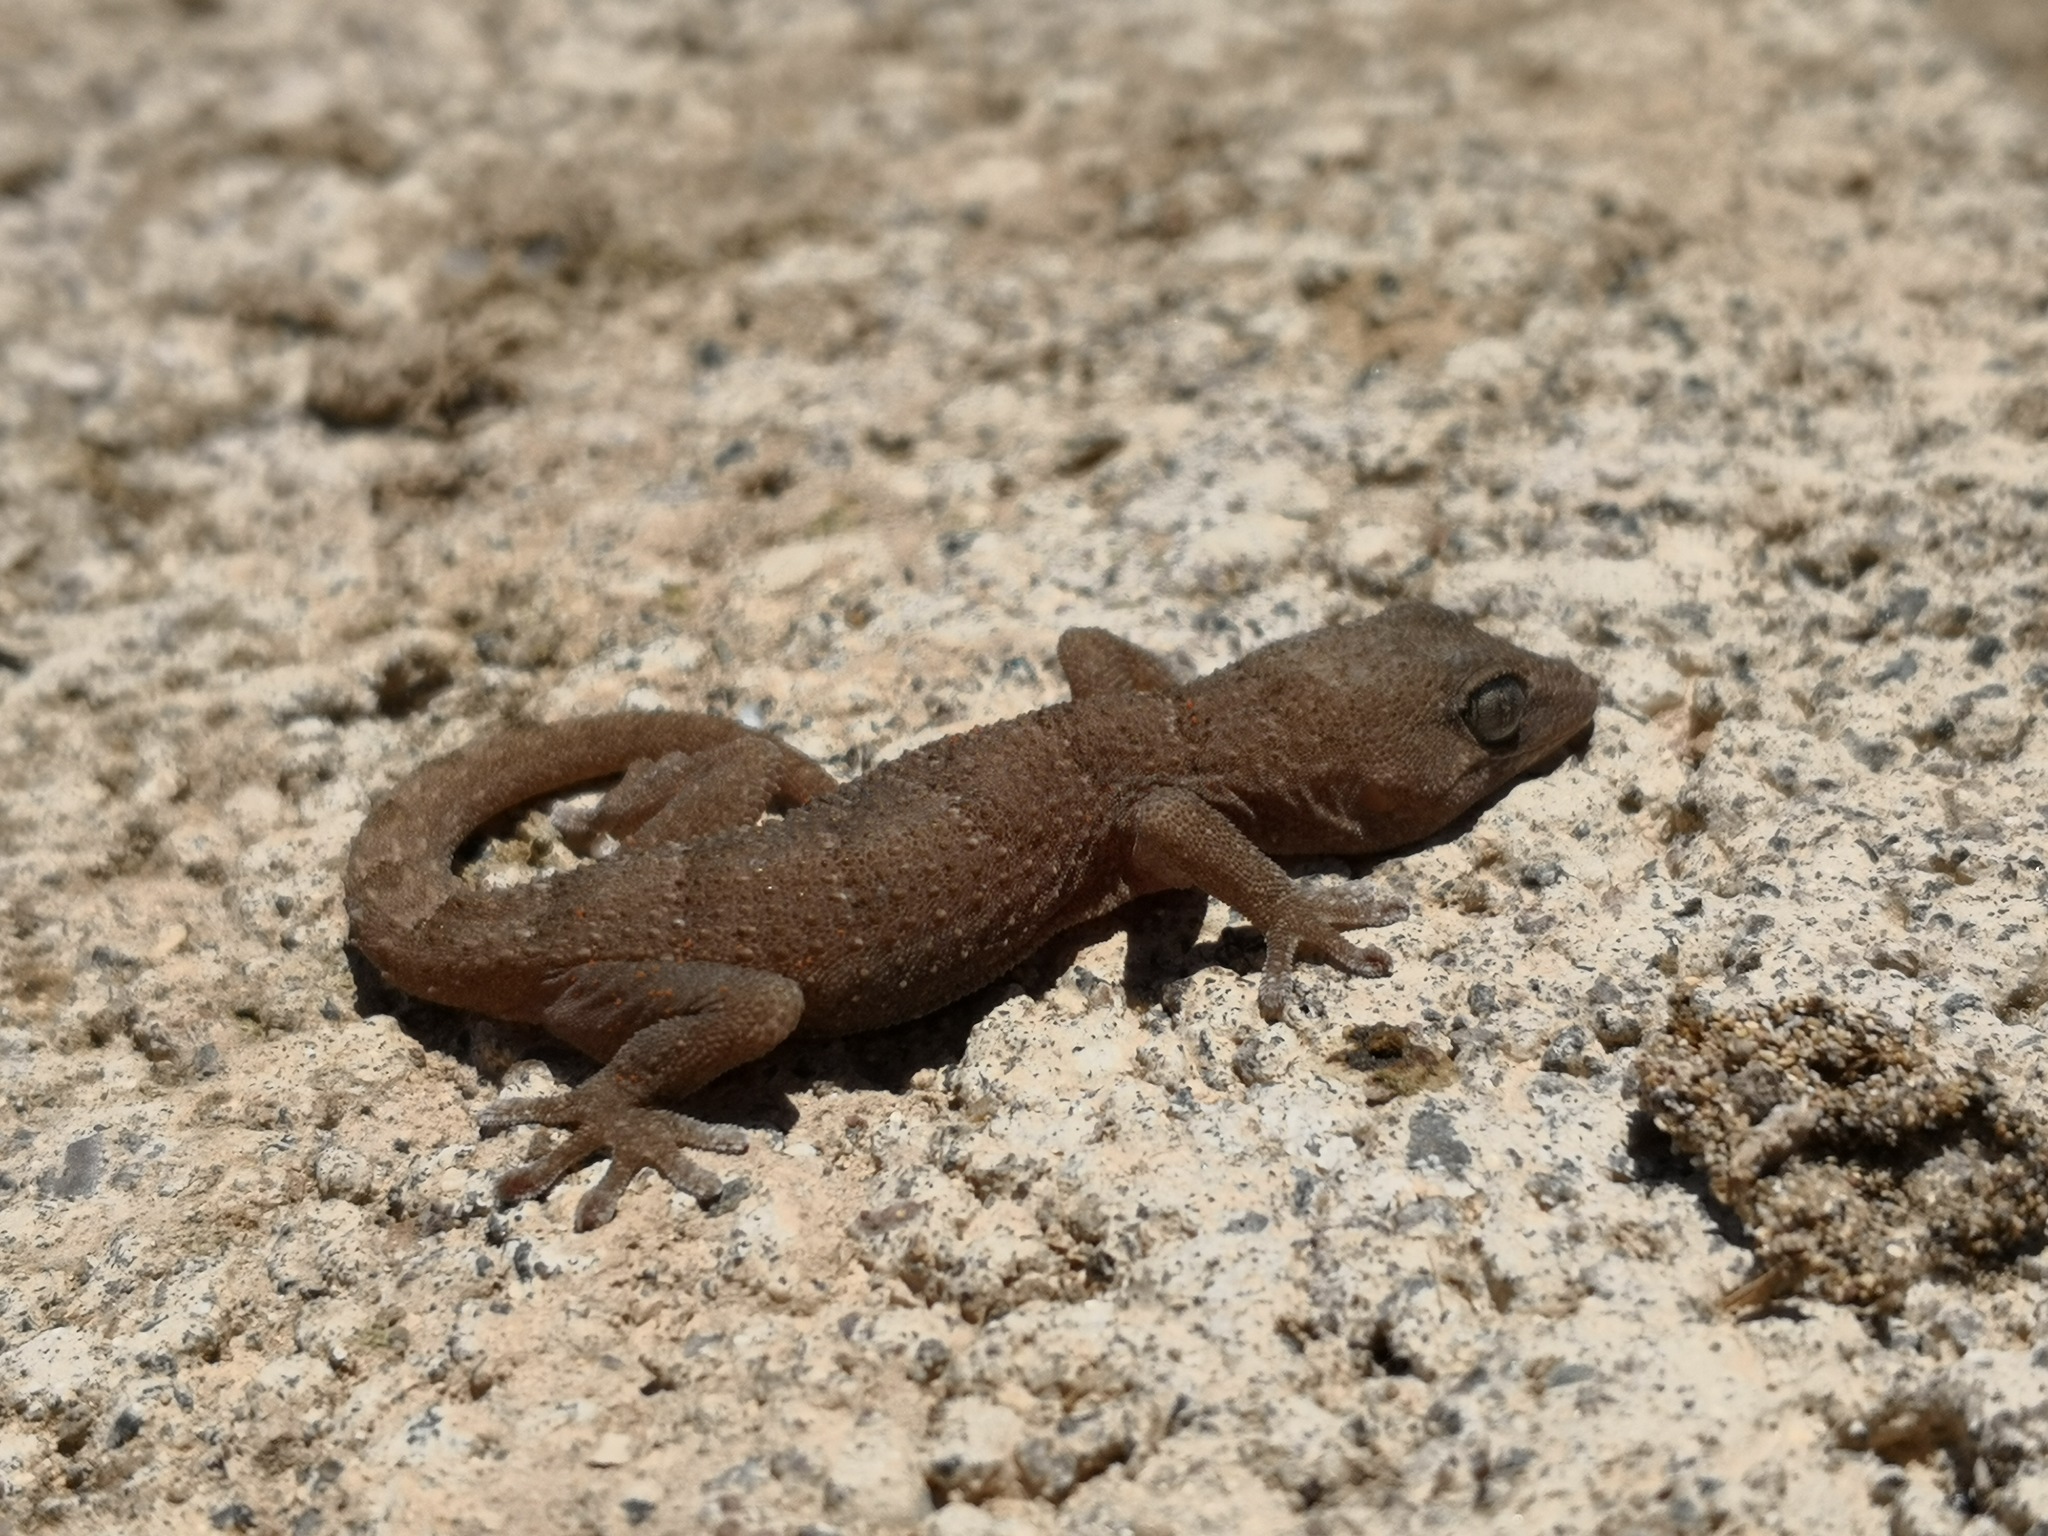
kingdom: Animalia
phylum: Chordata
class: Squamata
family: Phyllodactylidae
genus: Tarentola
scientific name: Tarentola boettgeri
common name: Boettger's wall gecko
